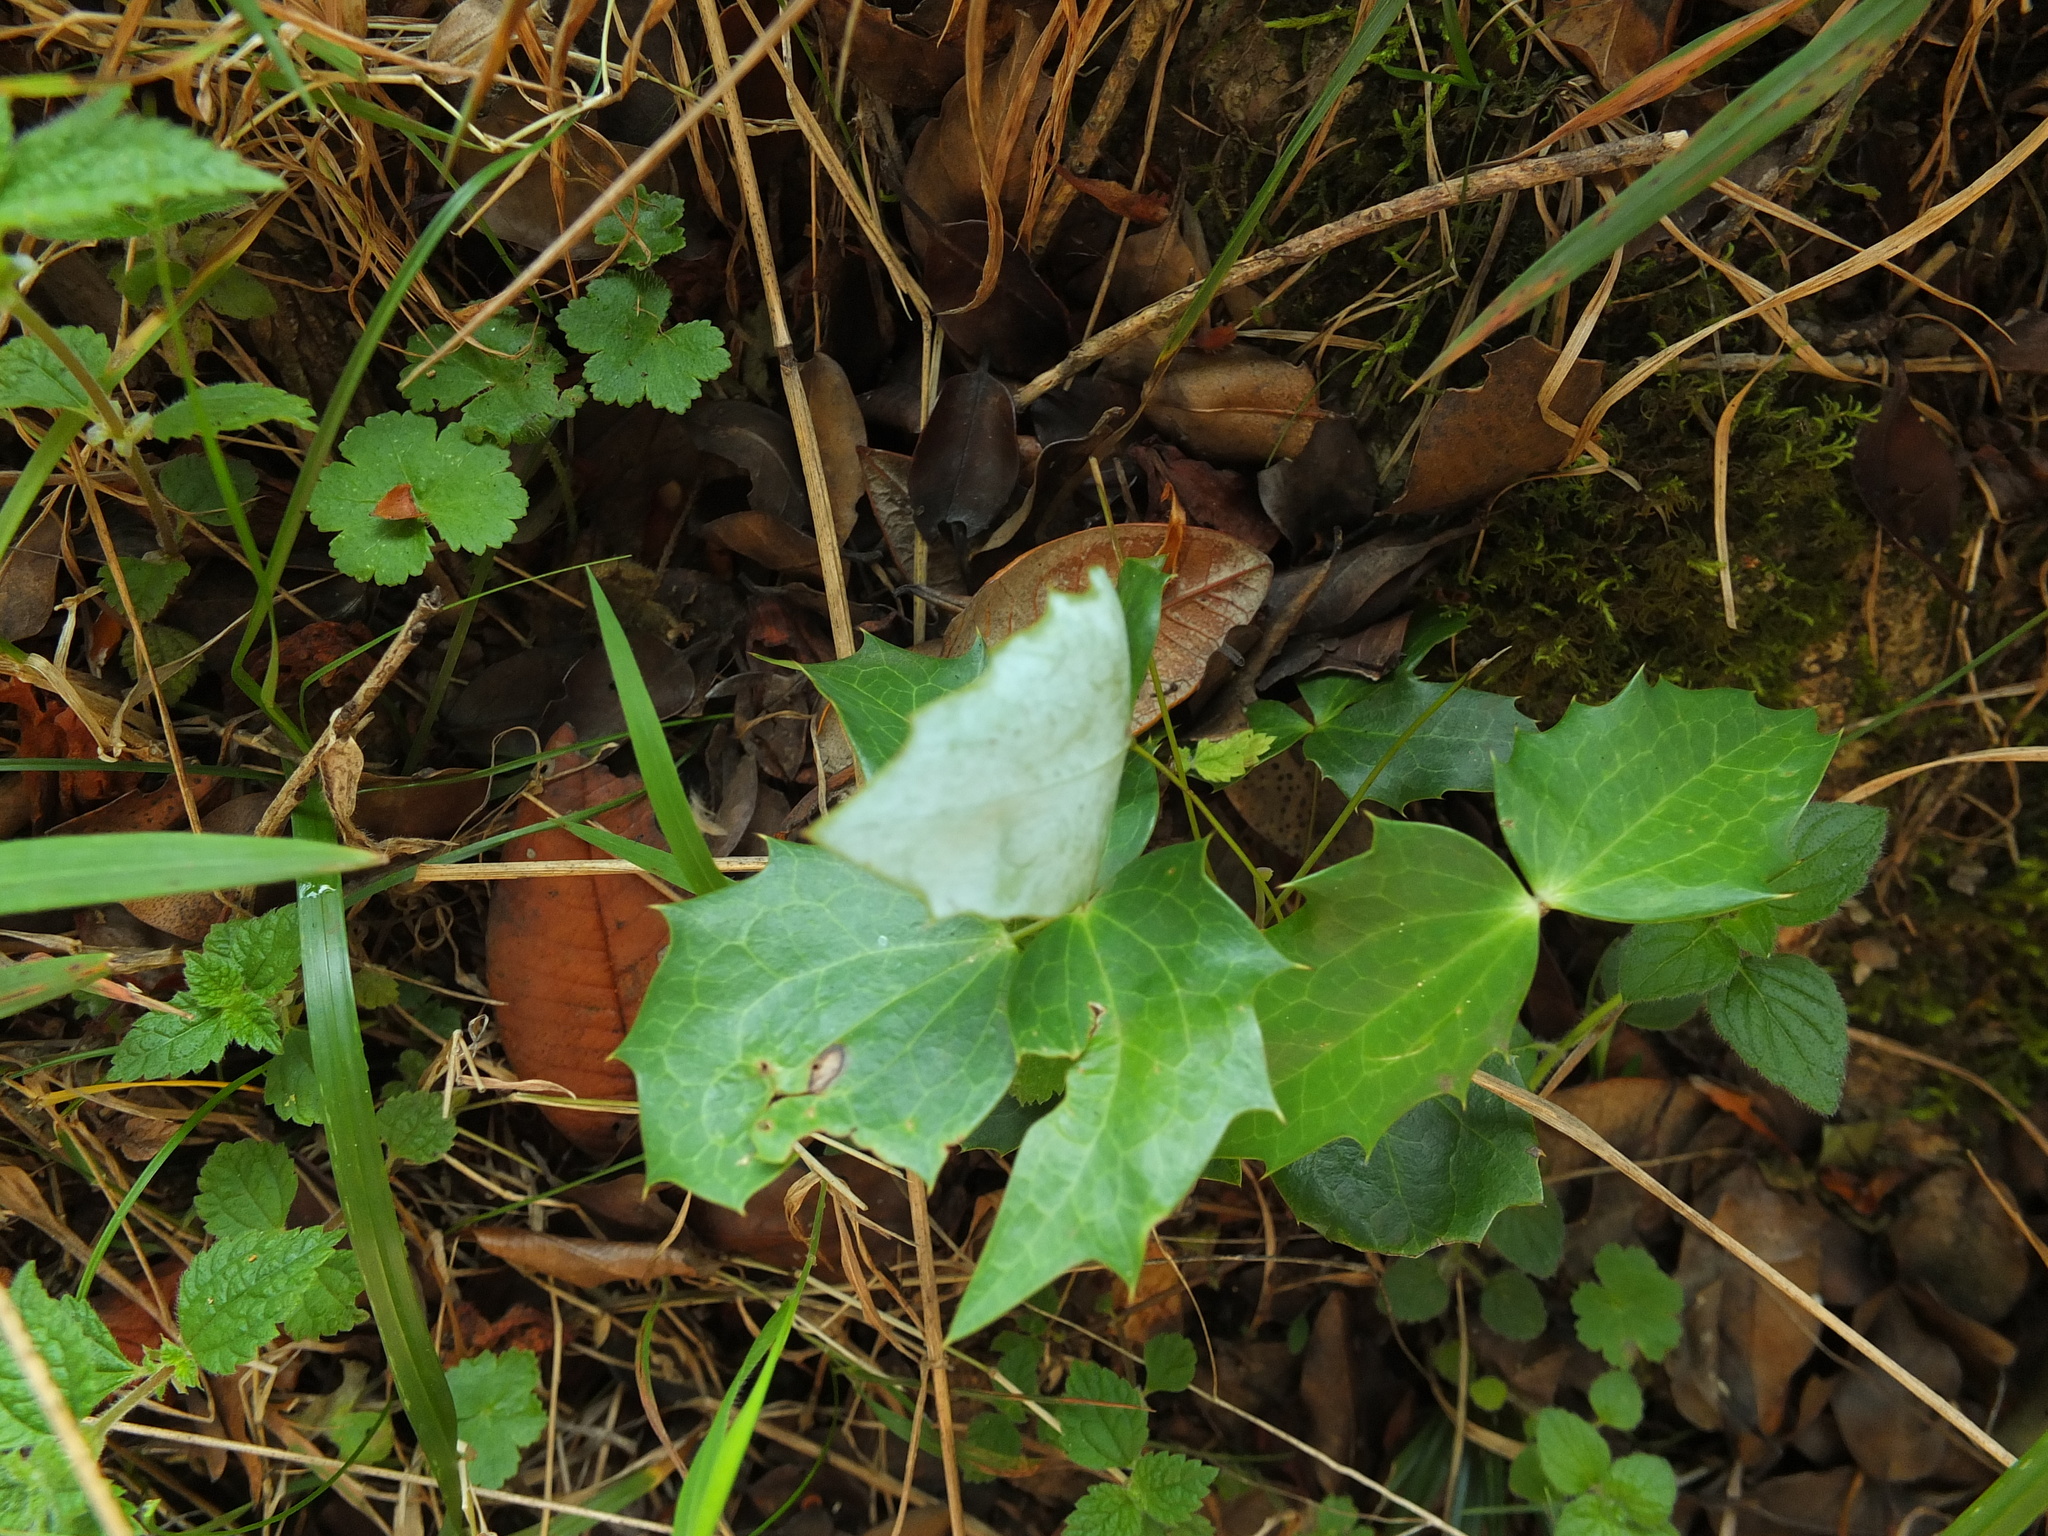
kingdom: Plantae
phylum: Tracheophyta
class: Magnoliopsida
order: Ranunculales
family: Berberidaceae
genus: Mahonia
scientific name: Mahonia napaulensis
